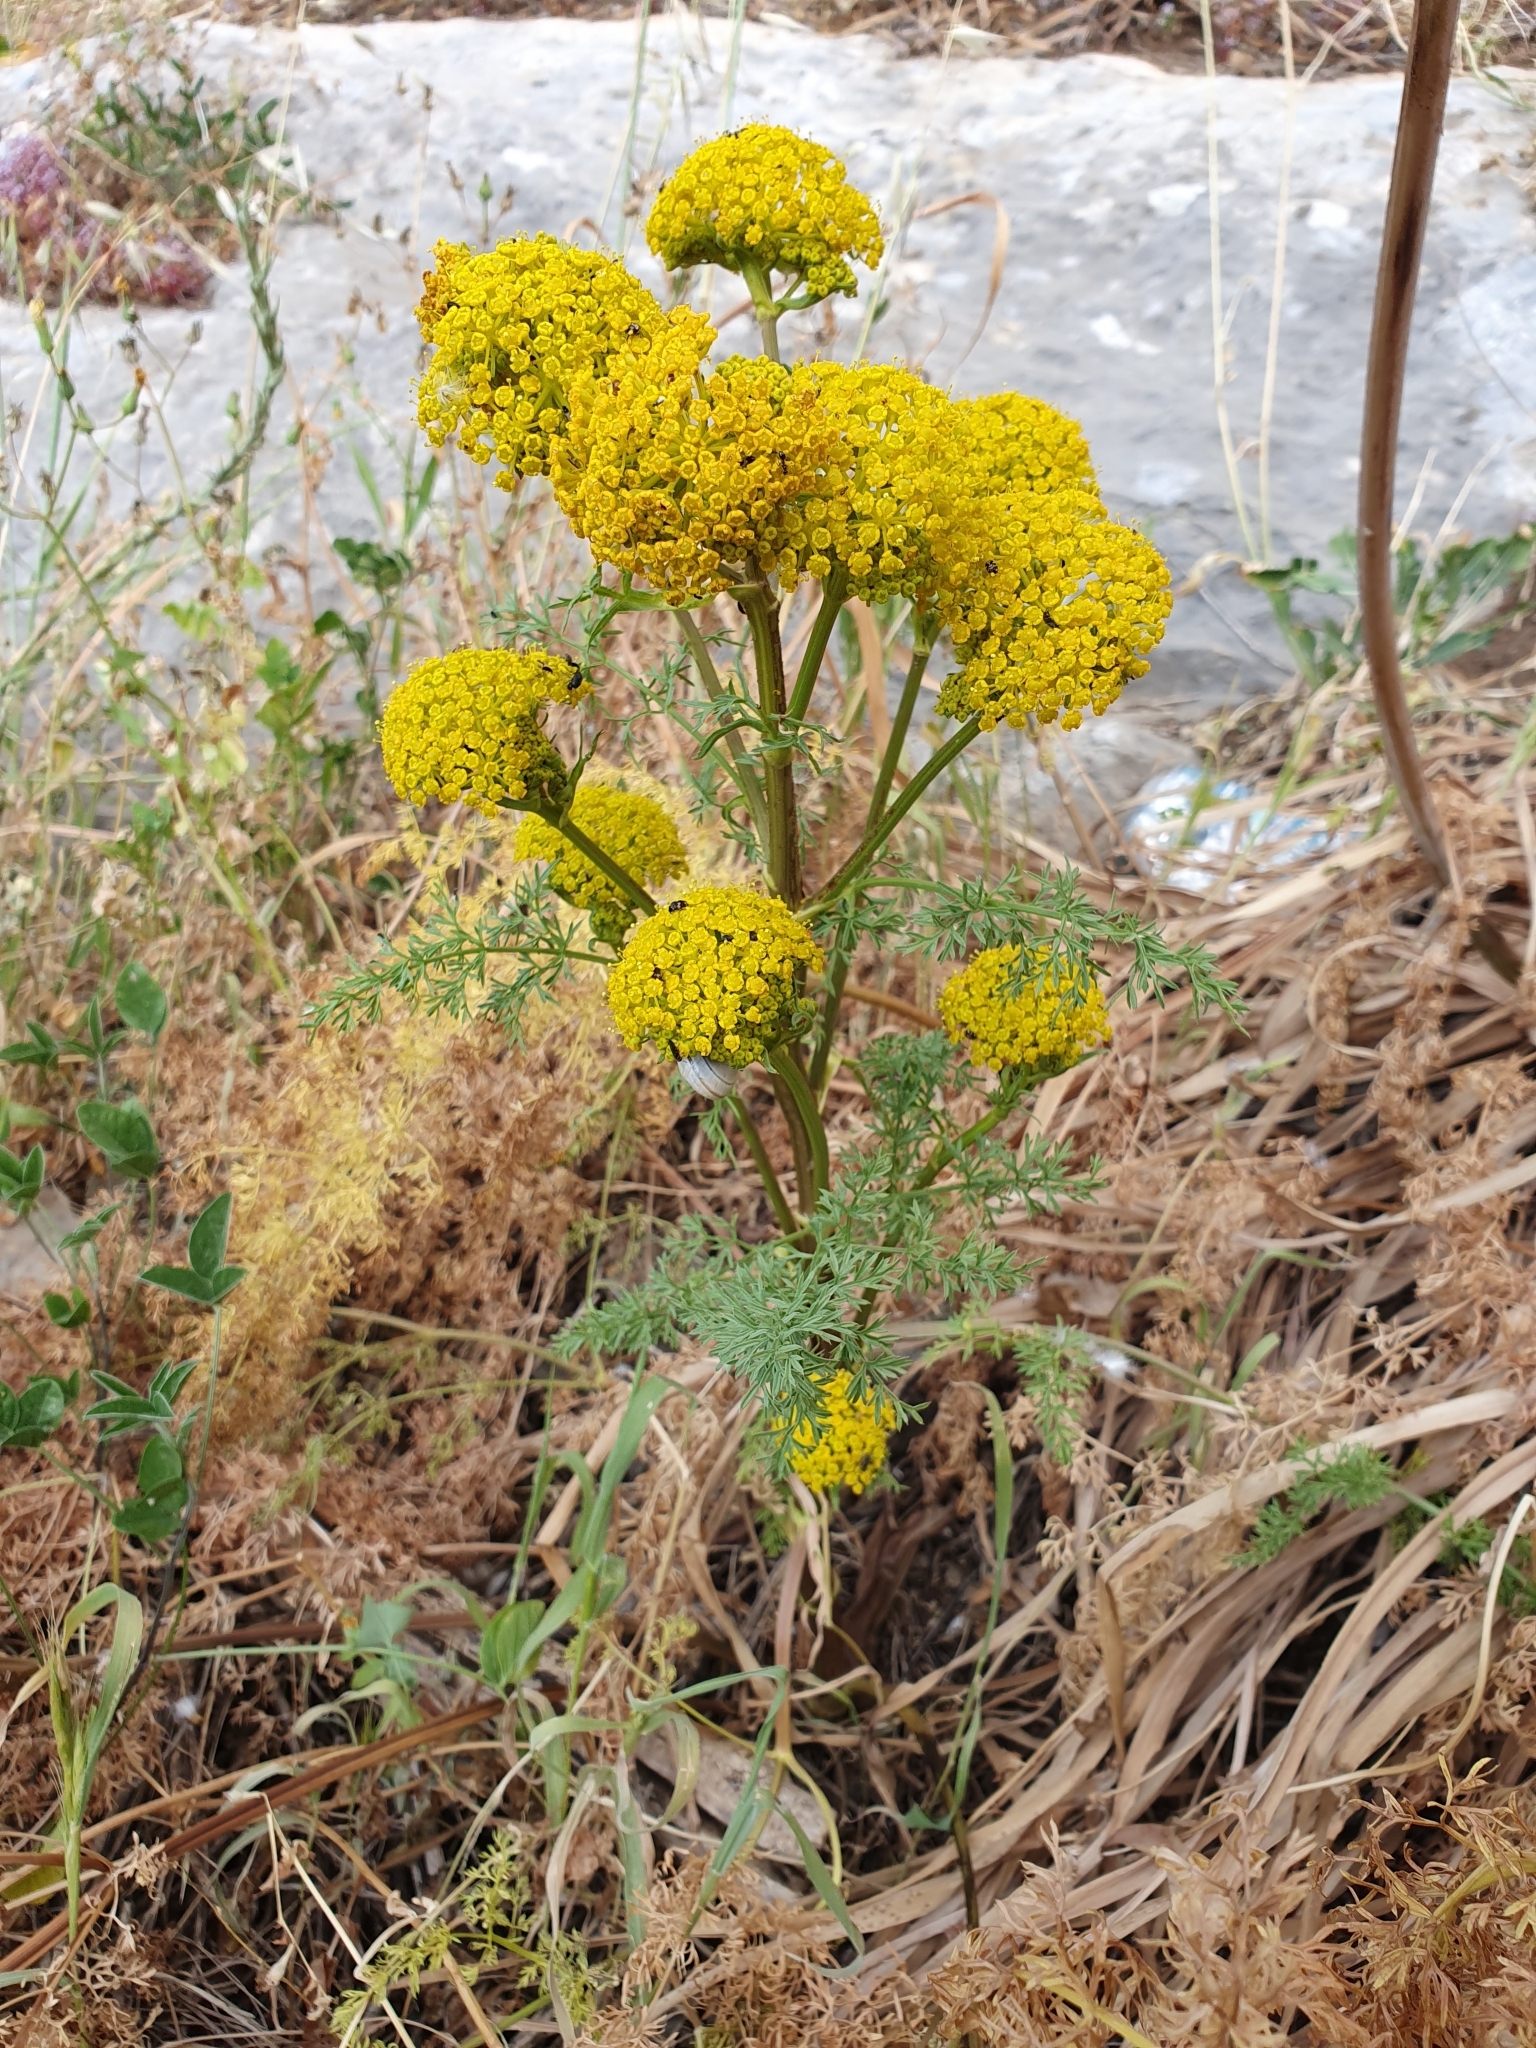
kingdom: Plantae
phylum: Tracheophyta
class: Magnoliopsida
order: Apiales
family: Apiaceae
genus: Ferulago
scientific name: Ferulago lutea
